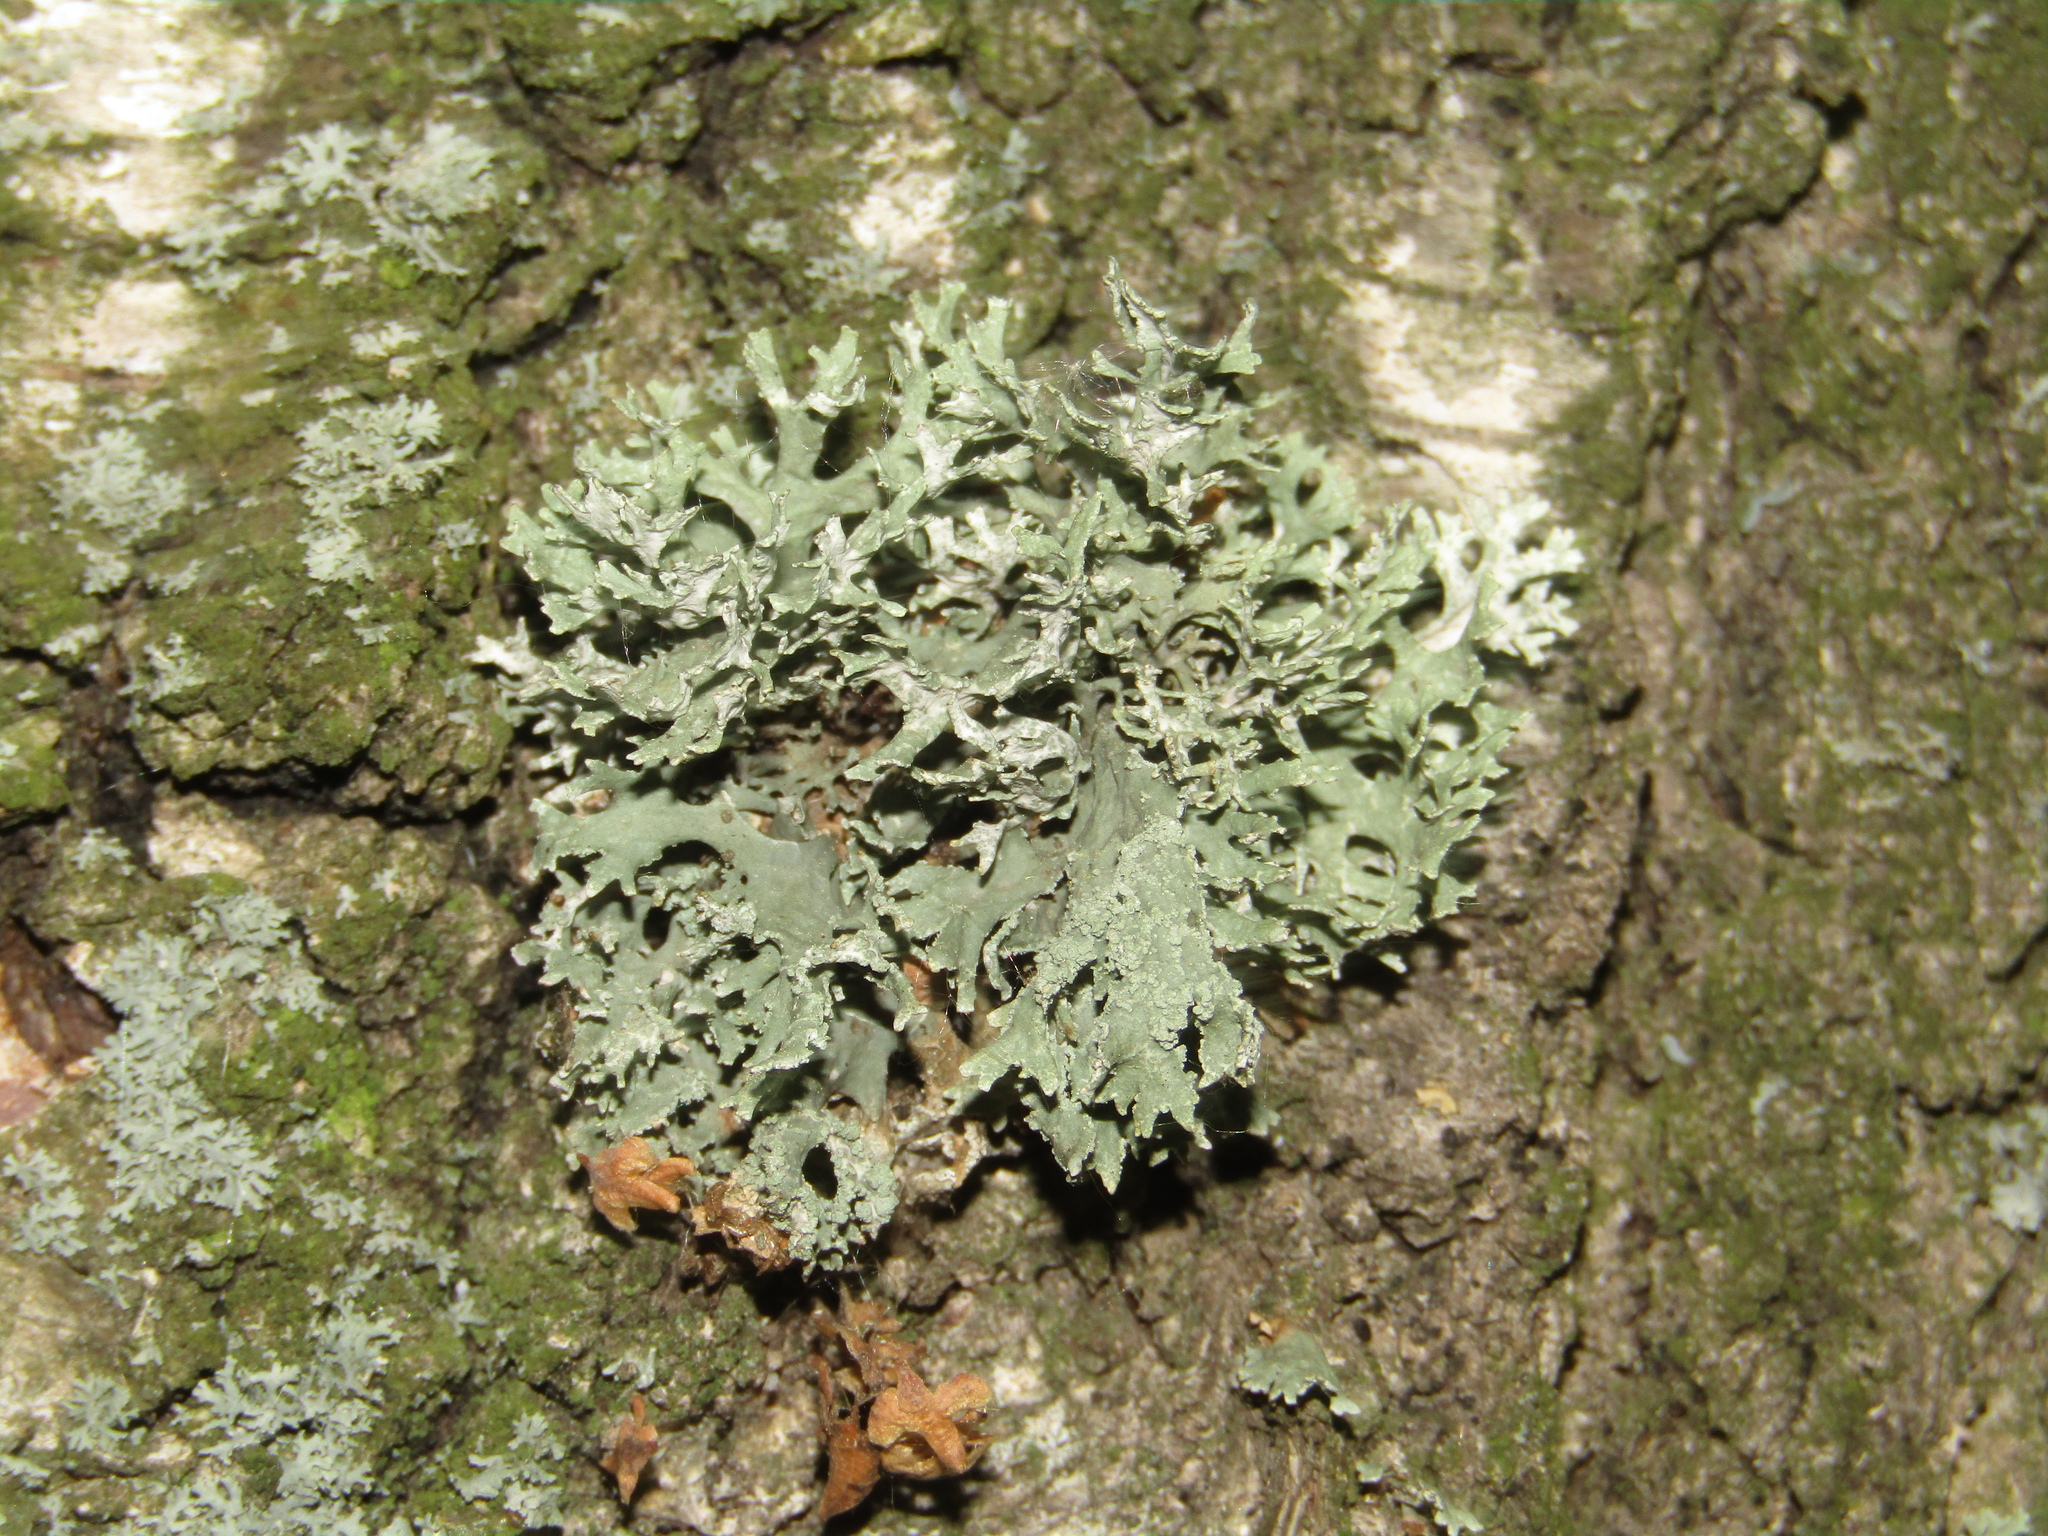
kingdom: Fungi
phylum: Ascomycota
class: Lecanoromycetes
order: Lecanorales
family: Parmeliaceae
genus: Evernia
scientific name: Evernia prunastri
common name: Oak moss
